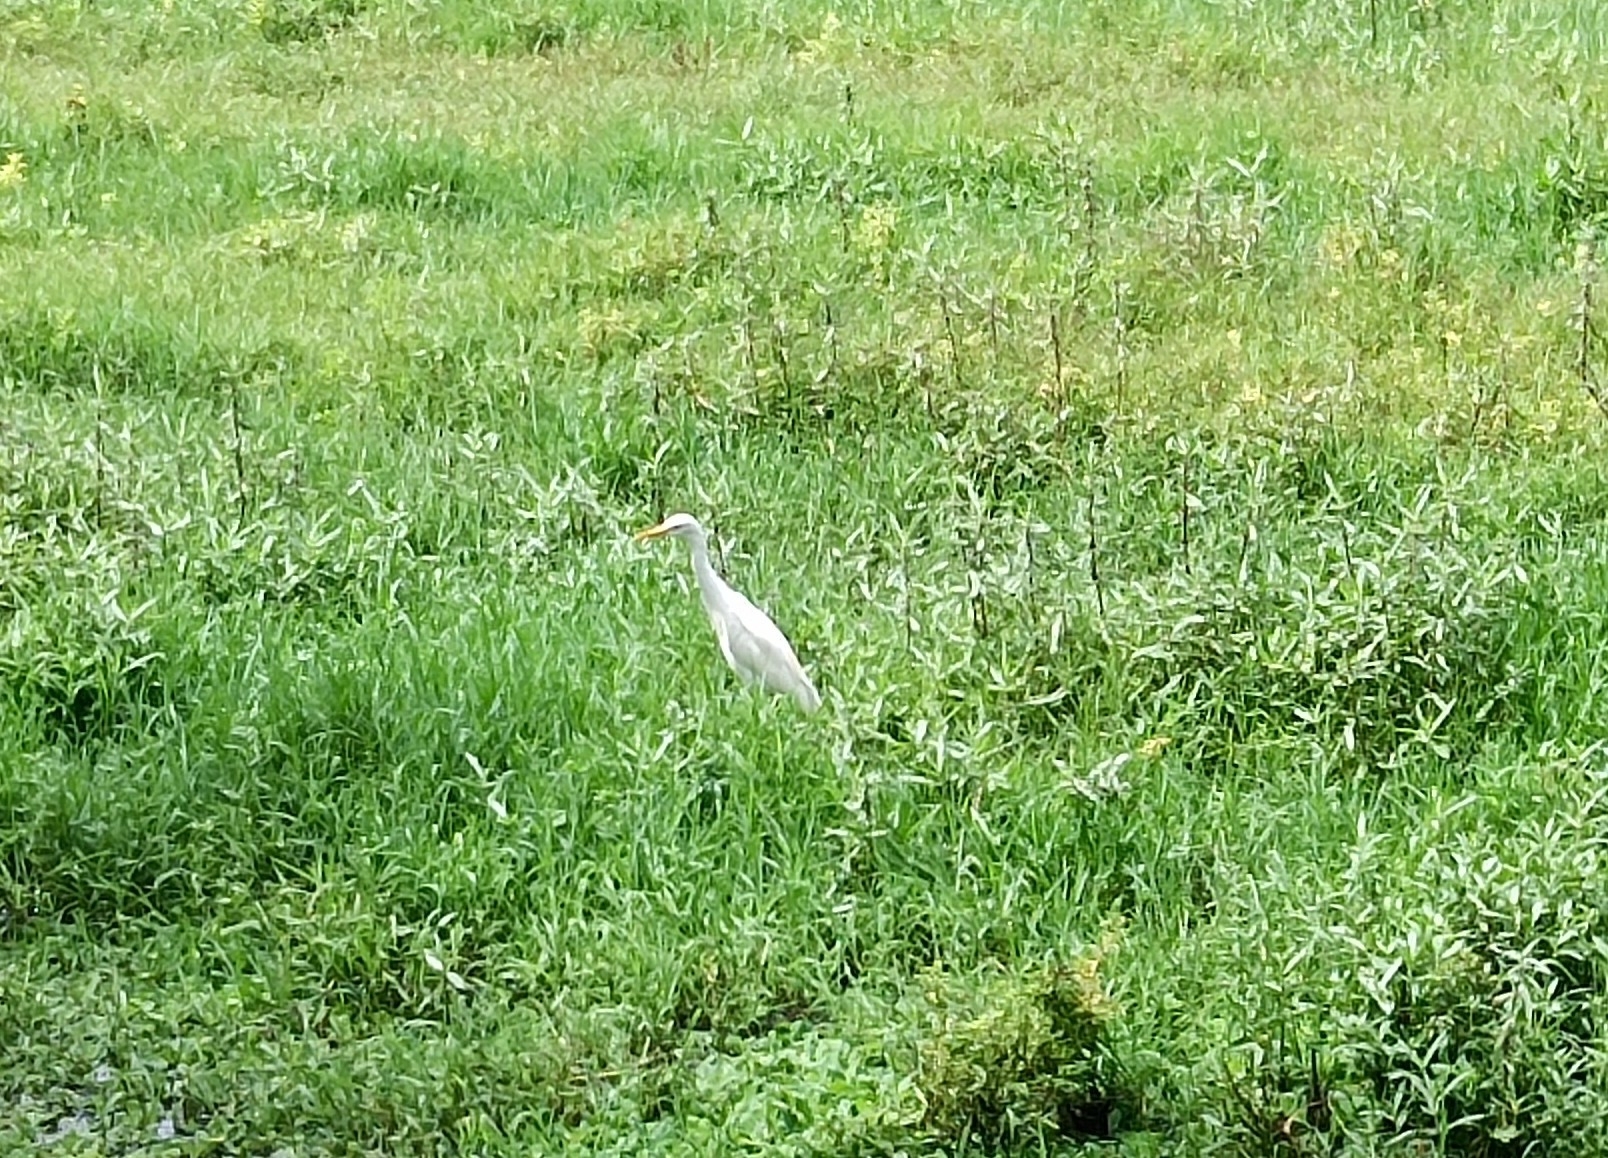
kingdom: Animalia
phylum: Chordata
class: Aves
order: Pelecaniformes
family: Ardeidae
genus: Bubulcus
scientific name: Bubulcus coromandus
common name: Eastern cattle egret
